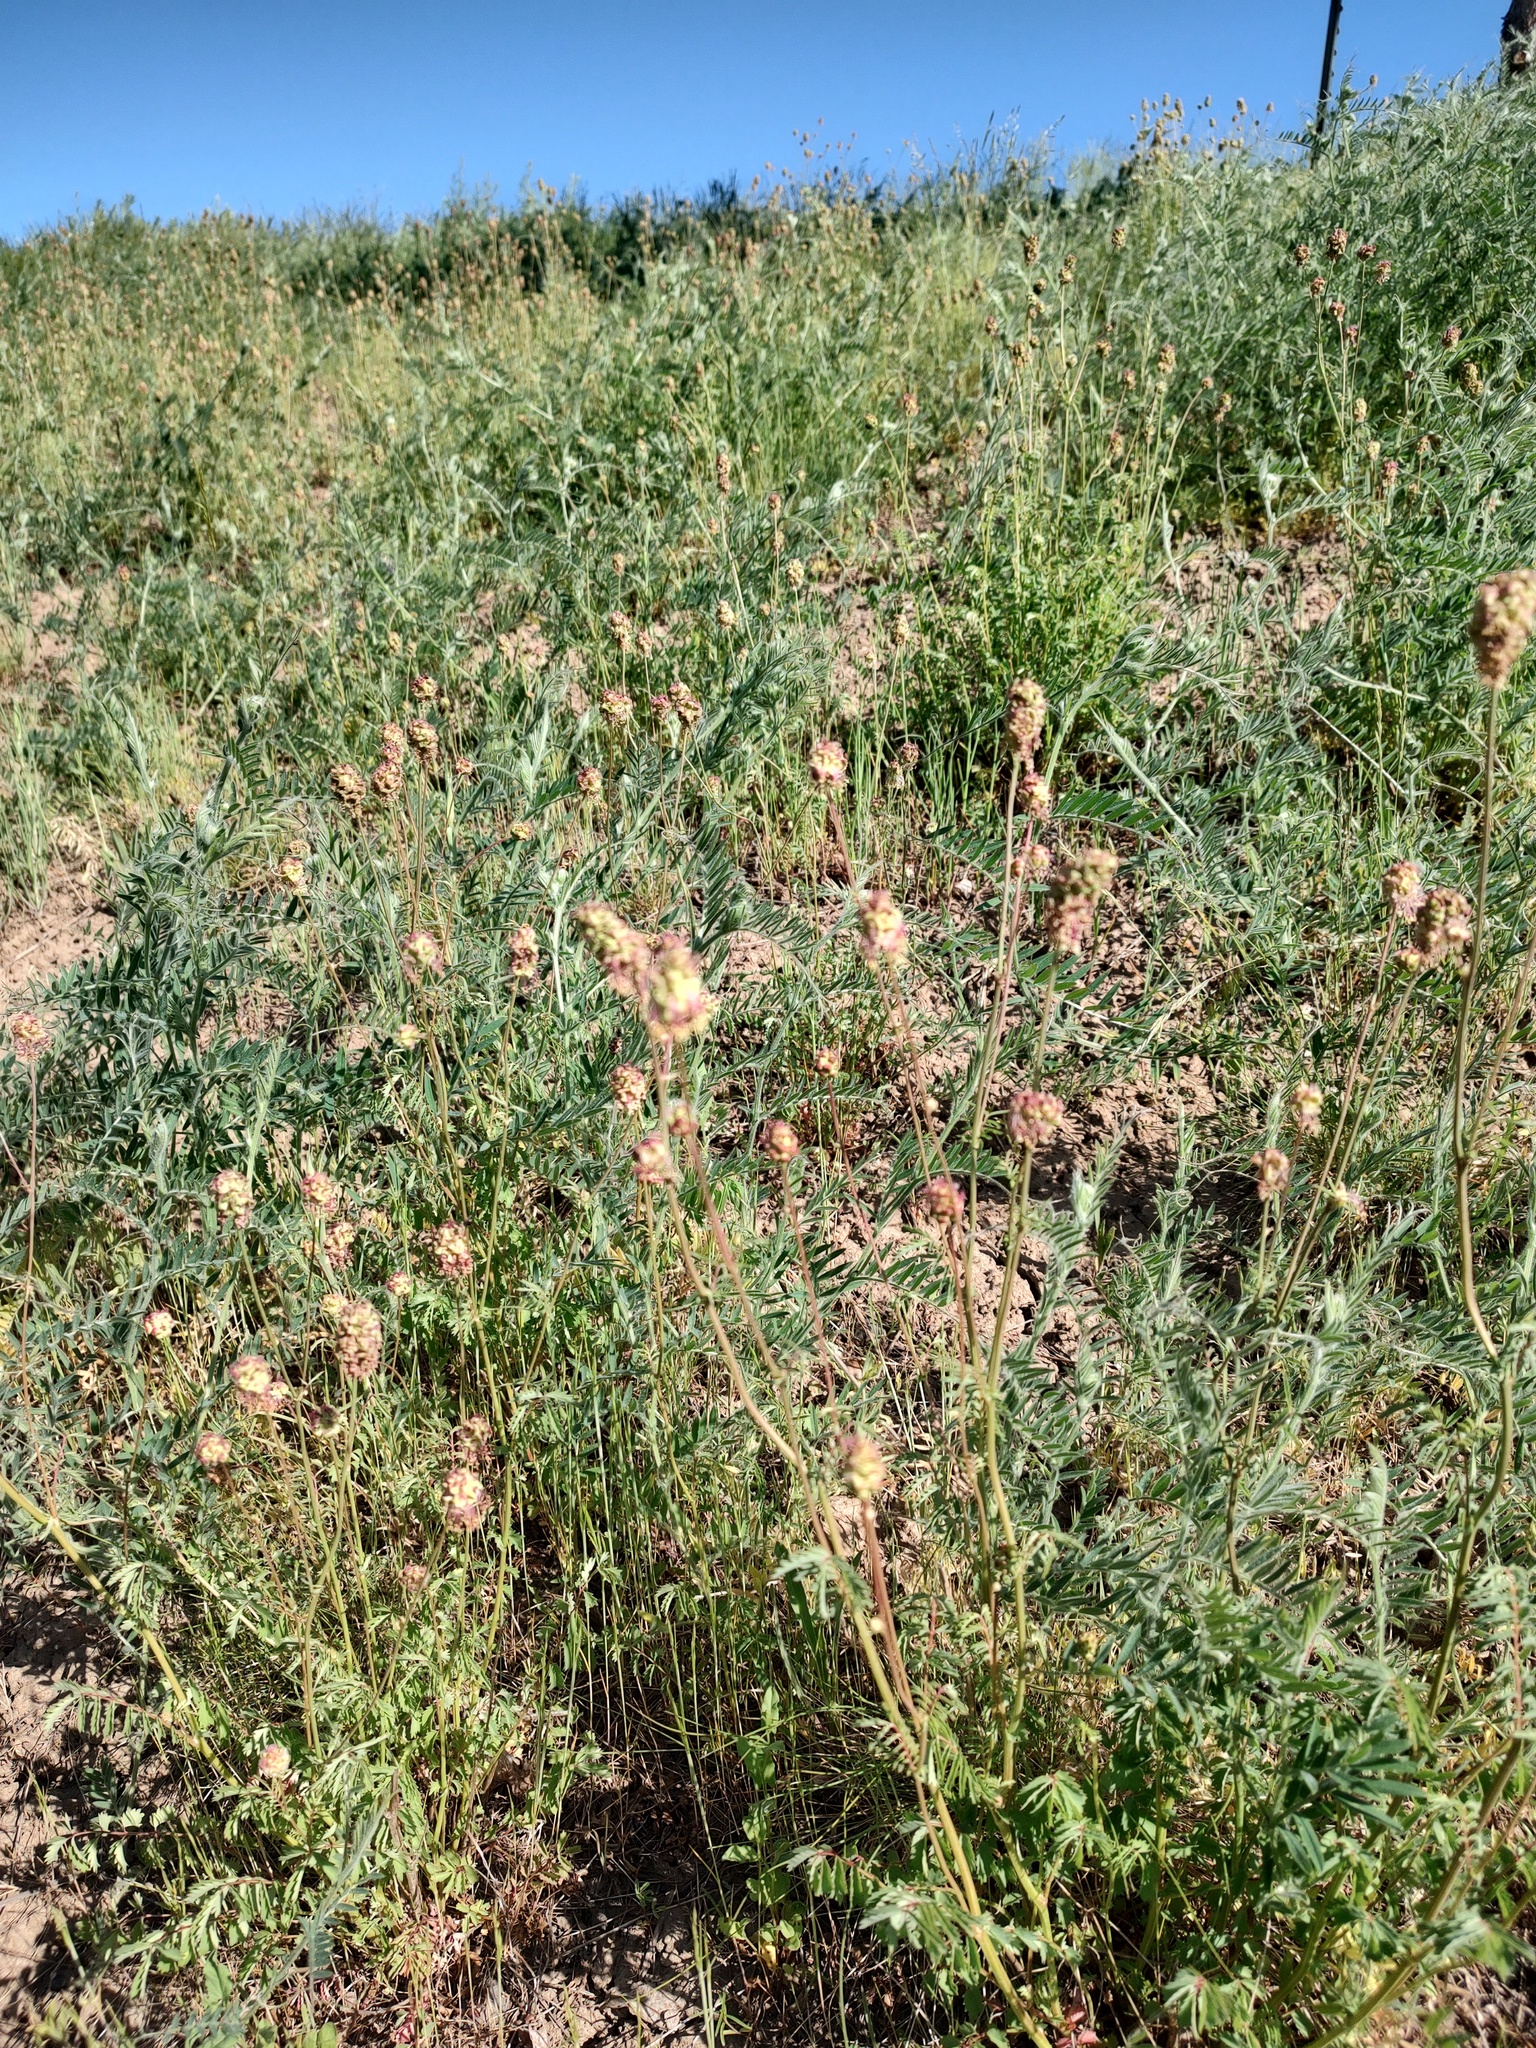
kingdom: Plantae
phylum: Tracheophyta
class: Magnoliopsida
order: Rosales
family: Rosaceae
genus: Poterium
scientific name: Poterium sanguisorba
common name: Salad burnet
